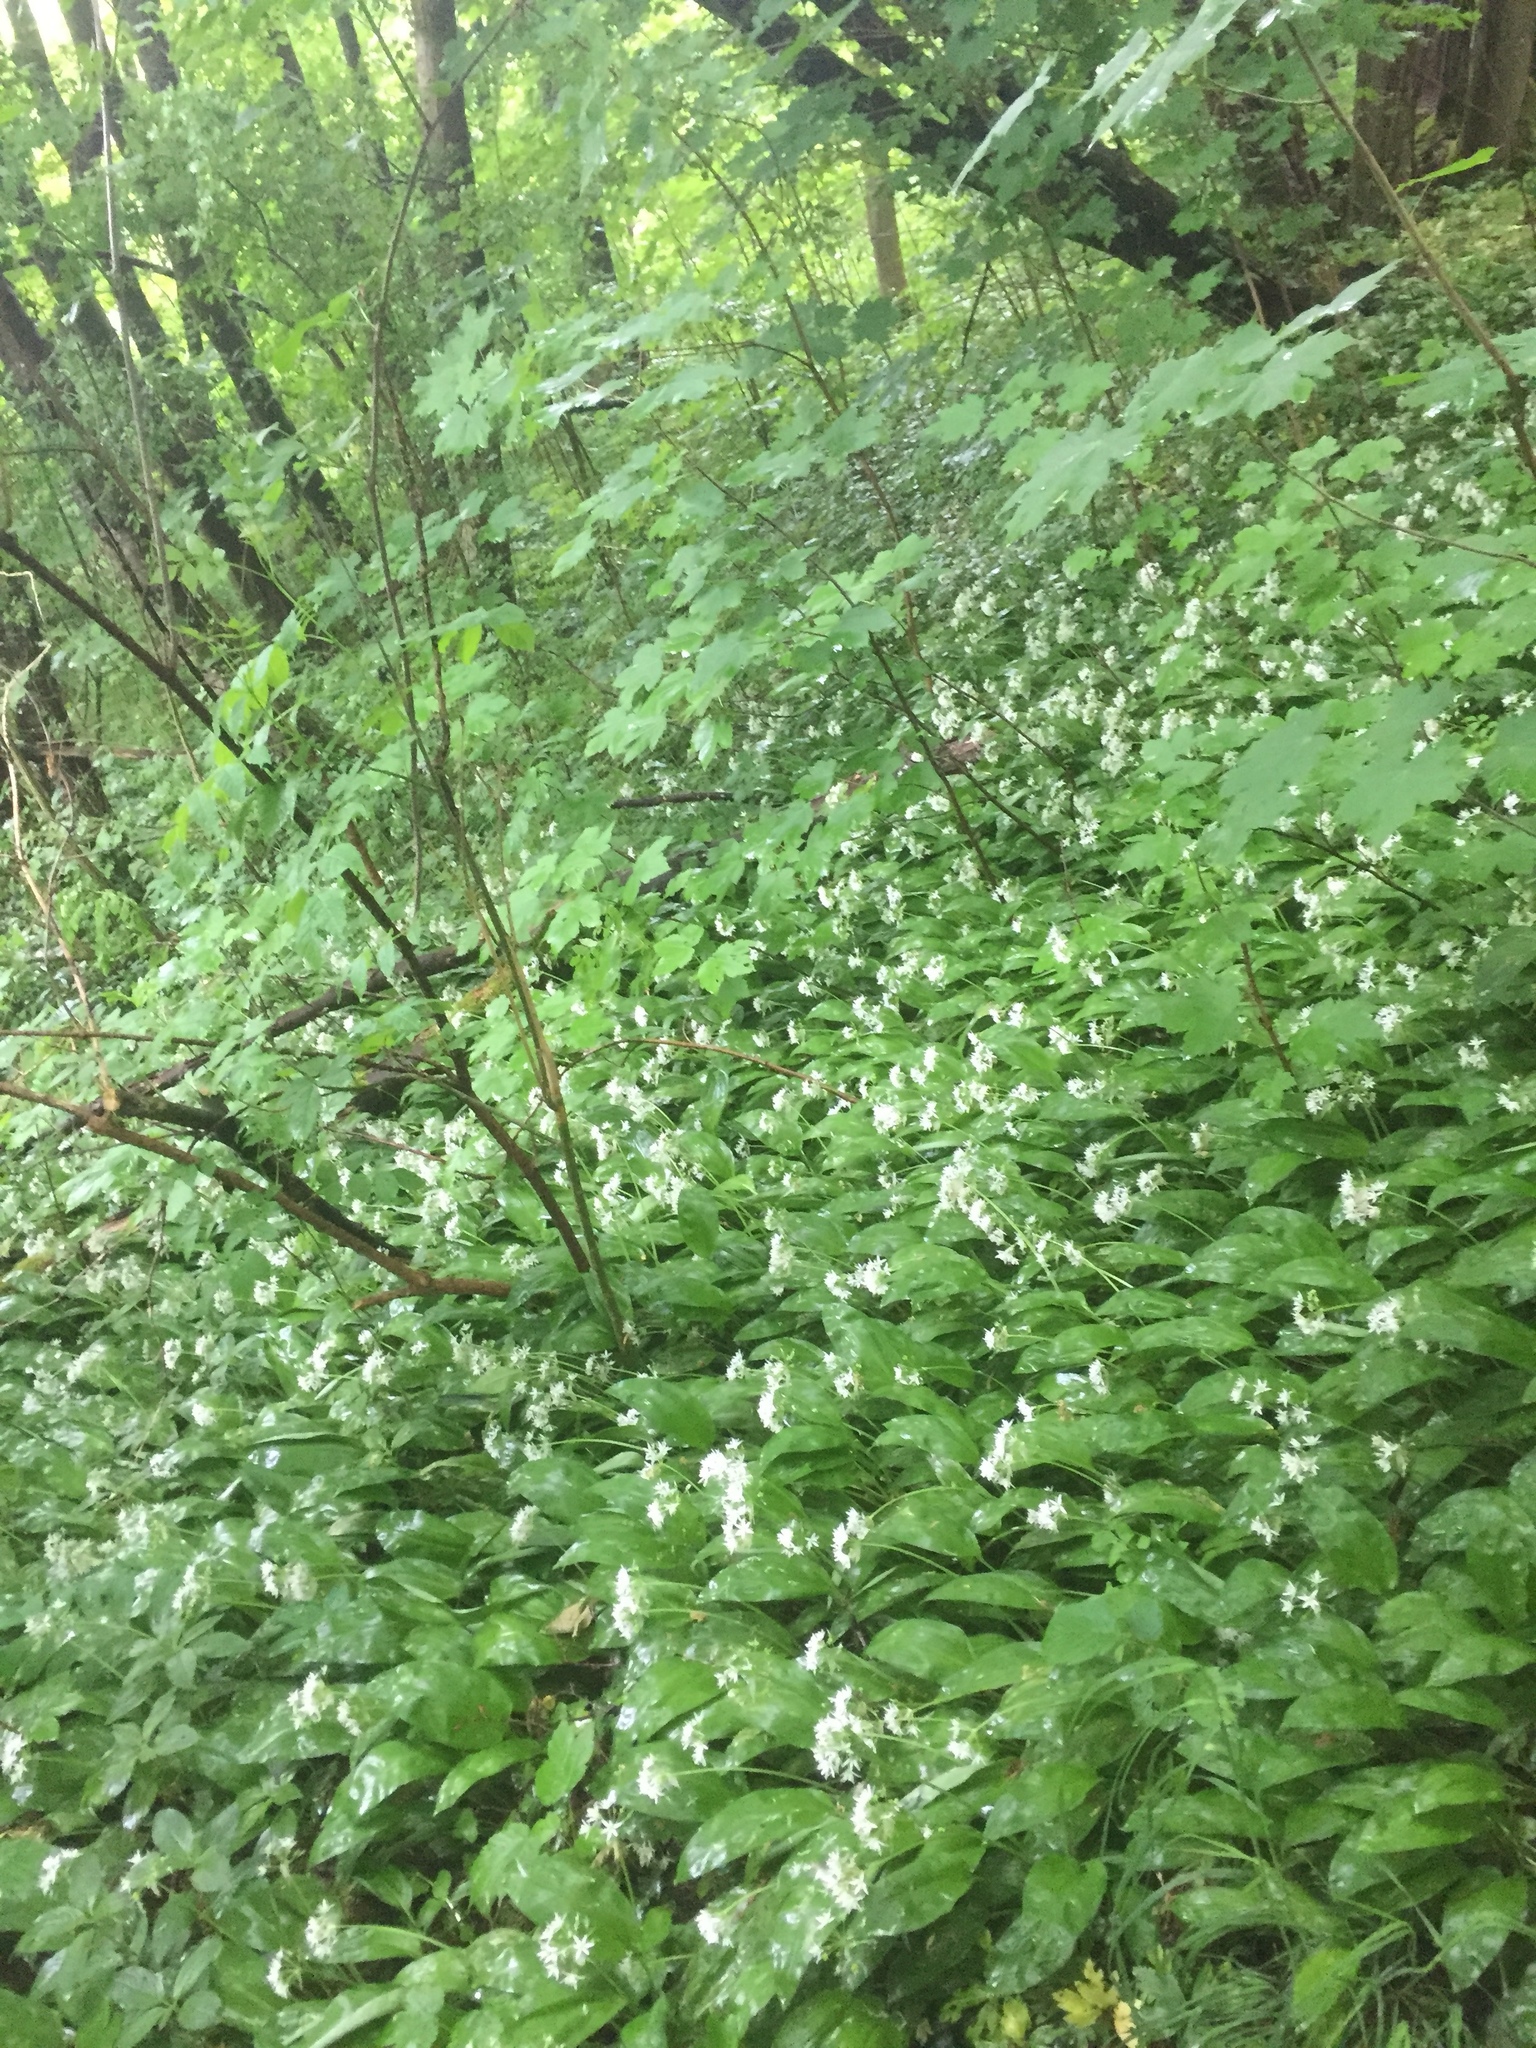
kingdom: Plantae
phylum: Tracheophyta
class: Liliopsida
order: Asparagales
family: Amaryllidaceae
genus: Allium
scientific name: Allium ursinum
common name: Ramsons
